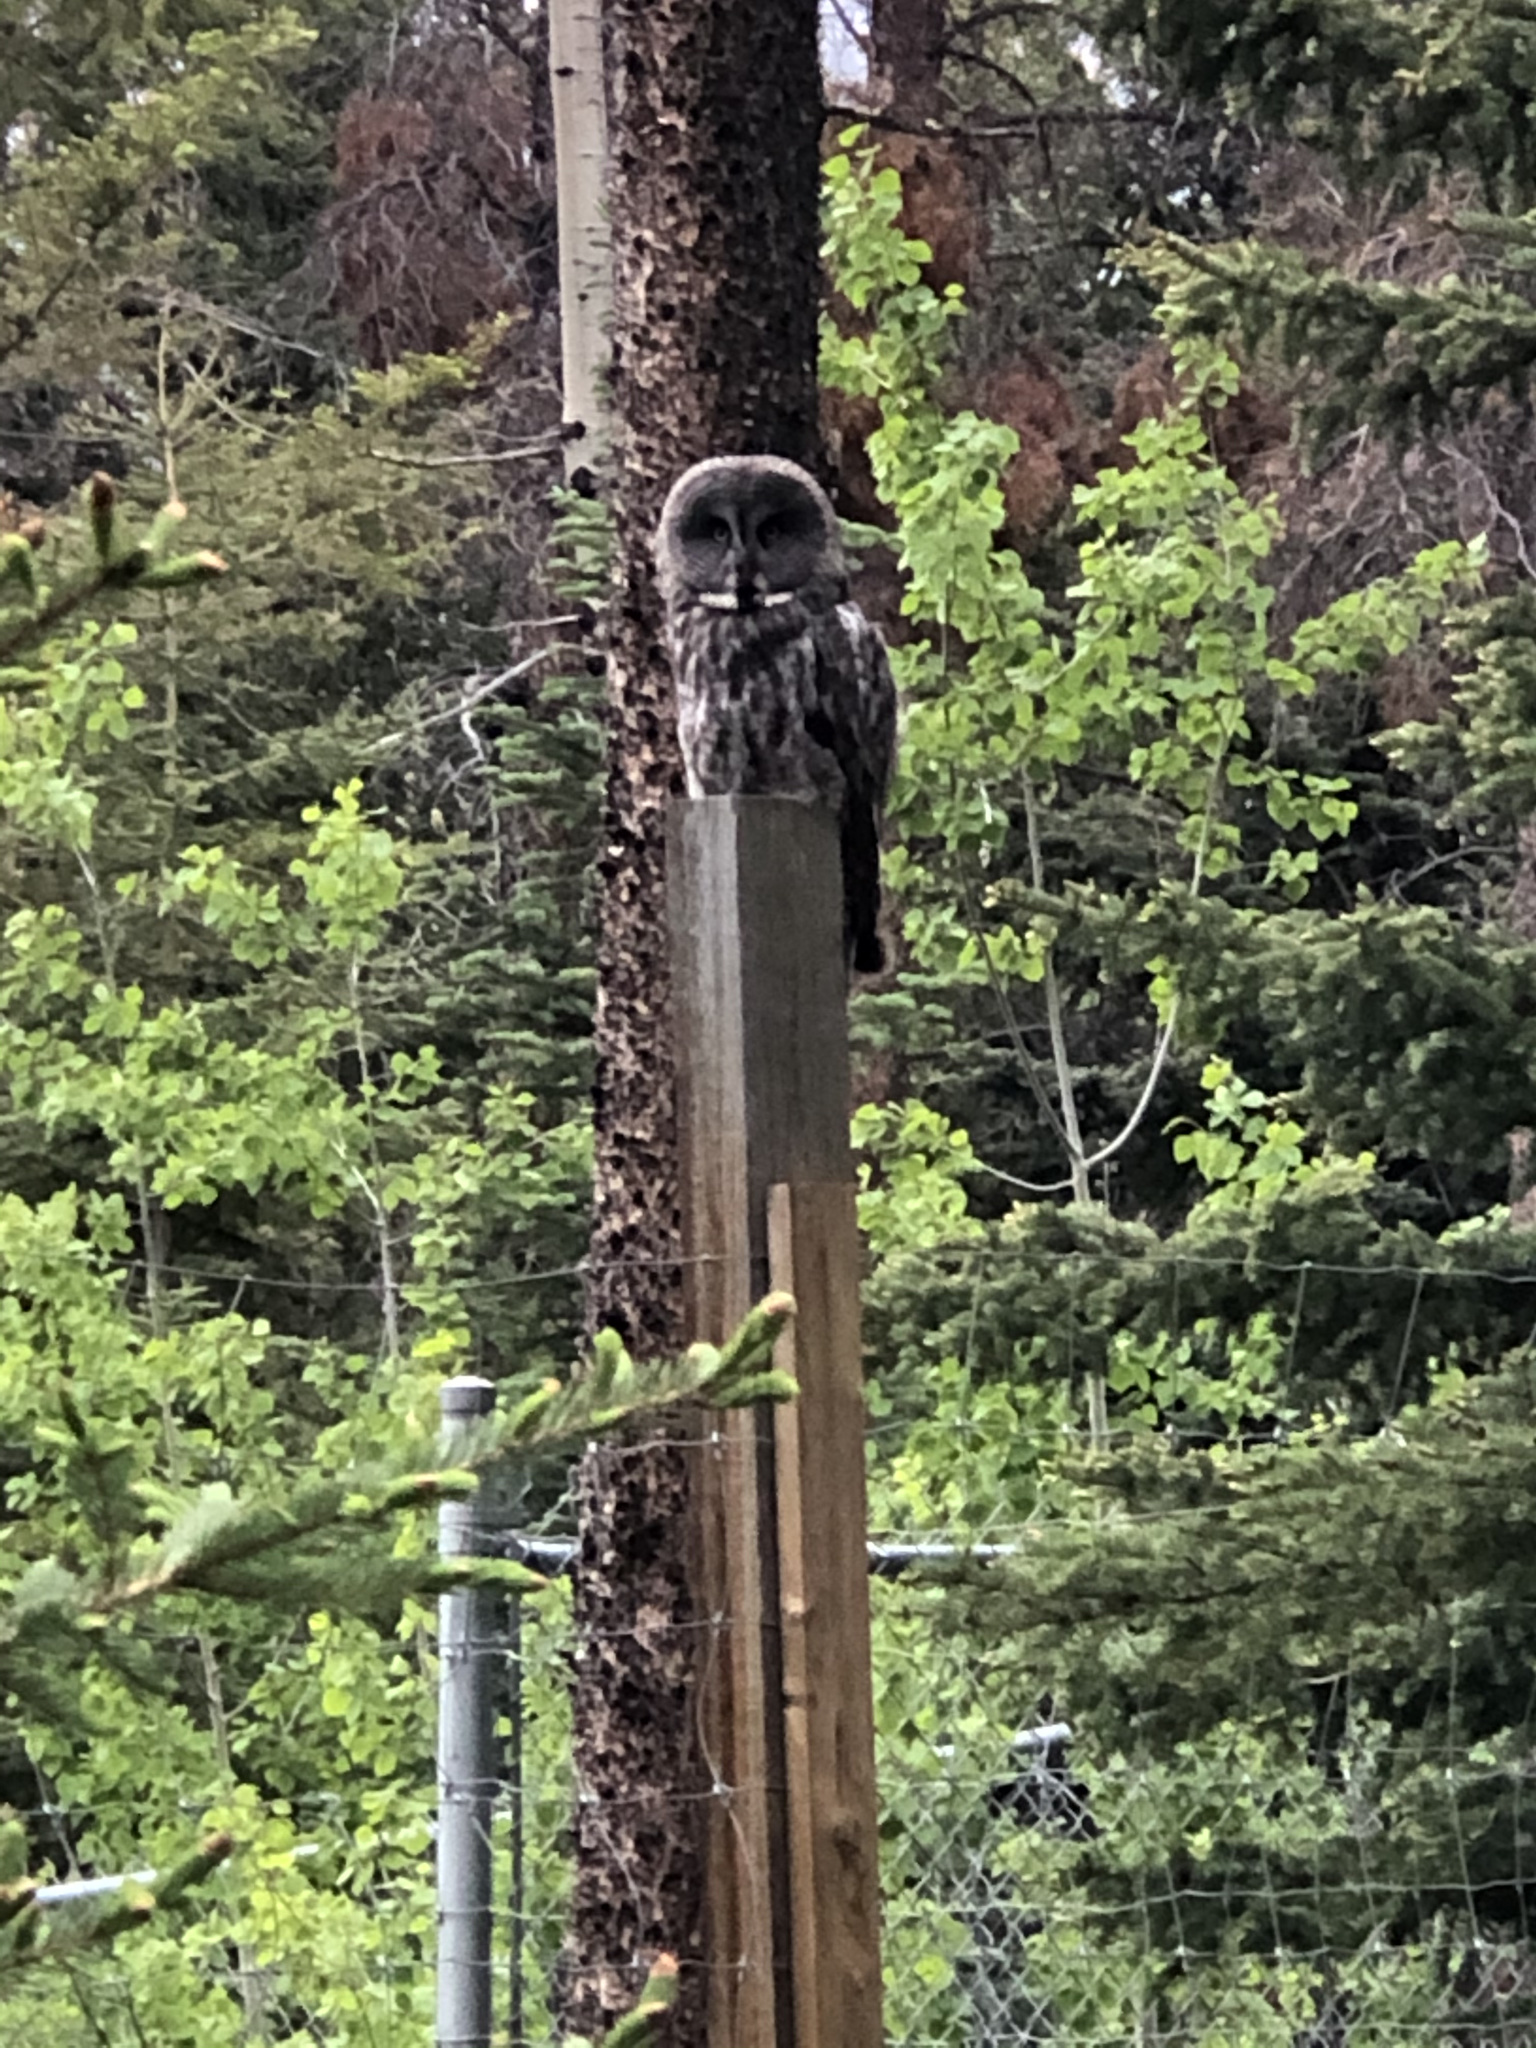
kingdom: Animalia
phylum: Chordata
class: Aves
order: Strigiformes
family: Strigidae
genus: Strix
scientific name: Strix nebulosa
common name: Great grey owl
